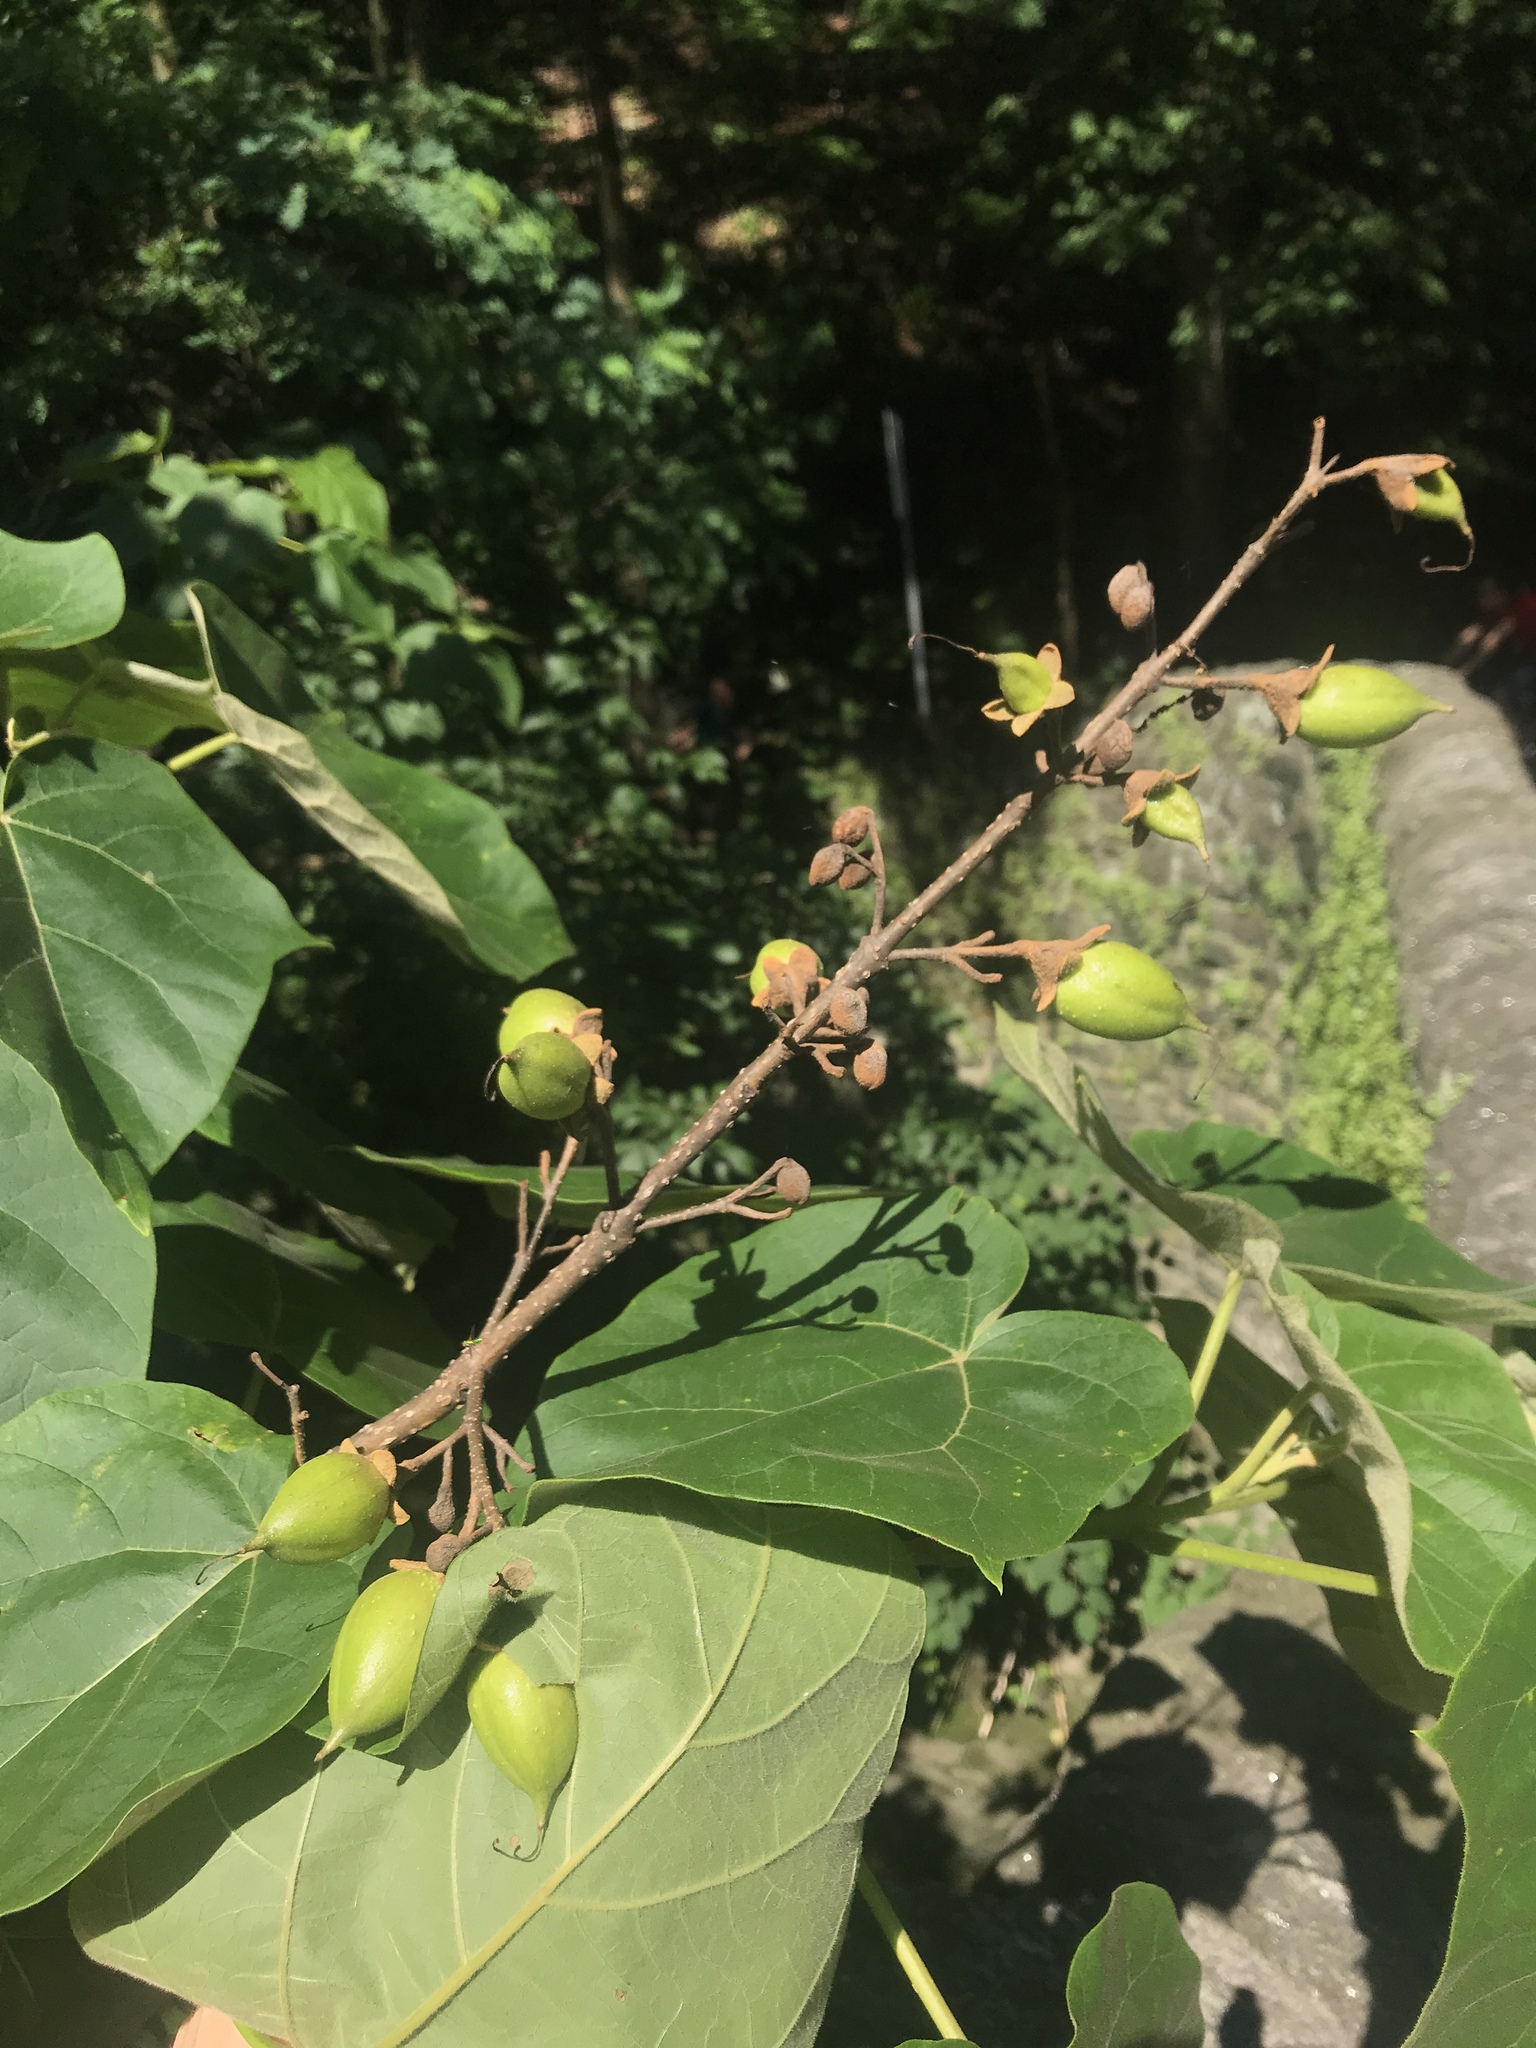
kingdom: Plantae
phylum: Tracheophyta
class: Magnoliopsida
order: Lamiales
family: Paulowniaceae
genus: Paulownia
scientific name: Paulownia tomentosa
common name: Foxglove-tree
